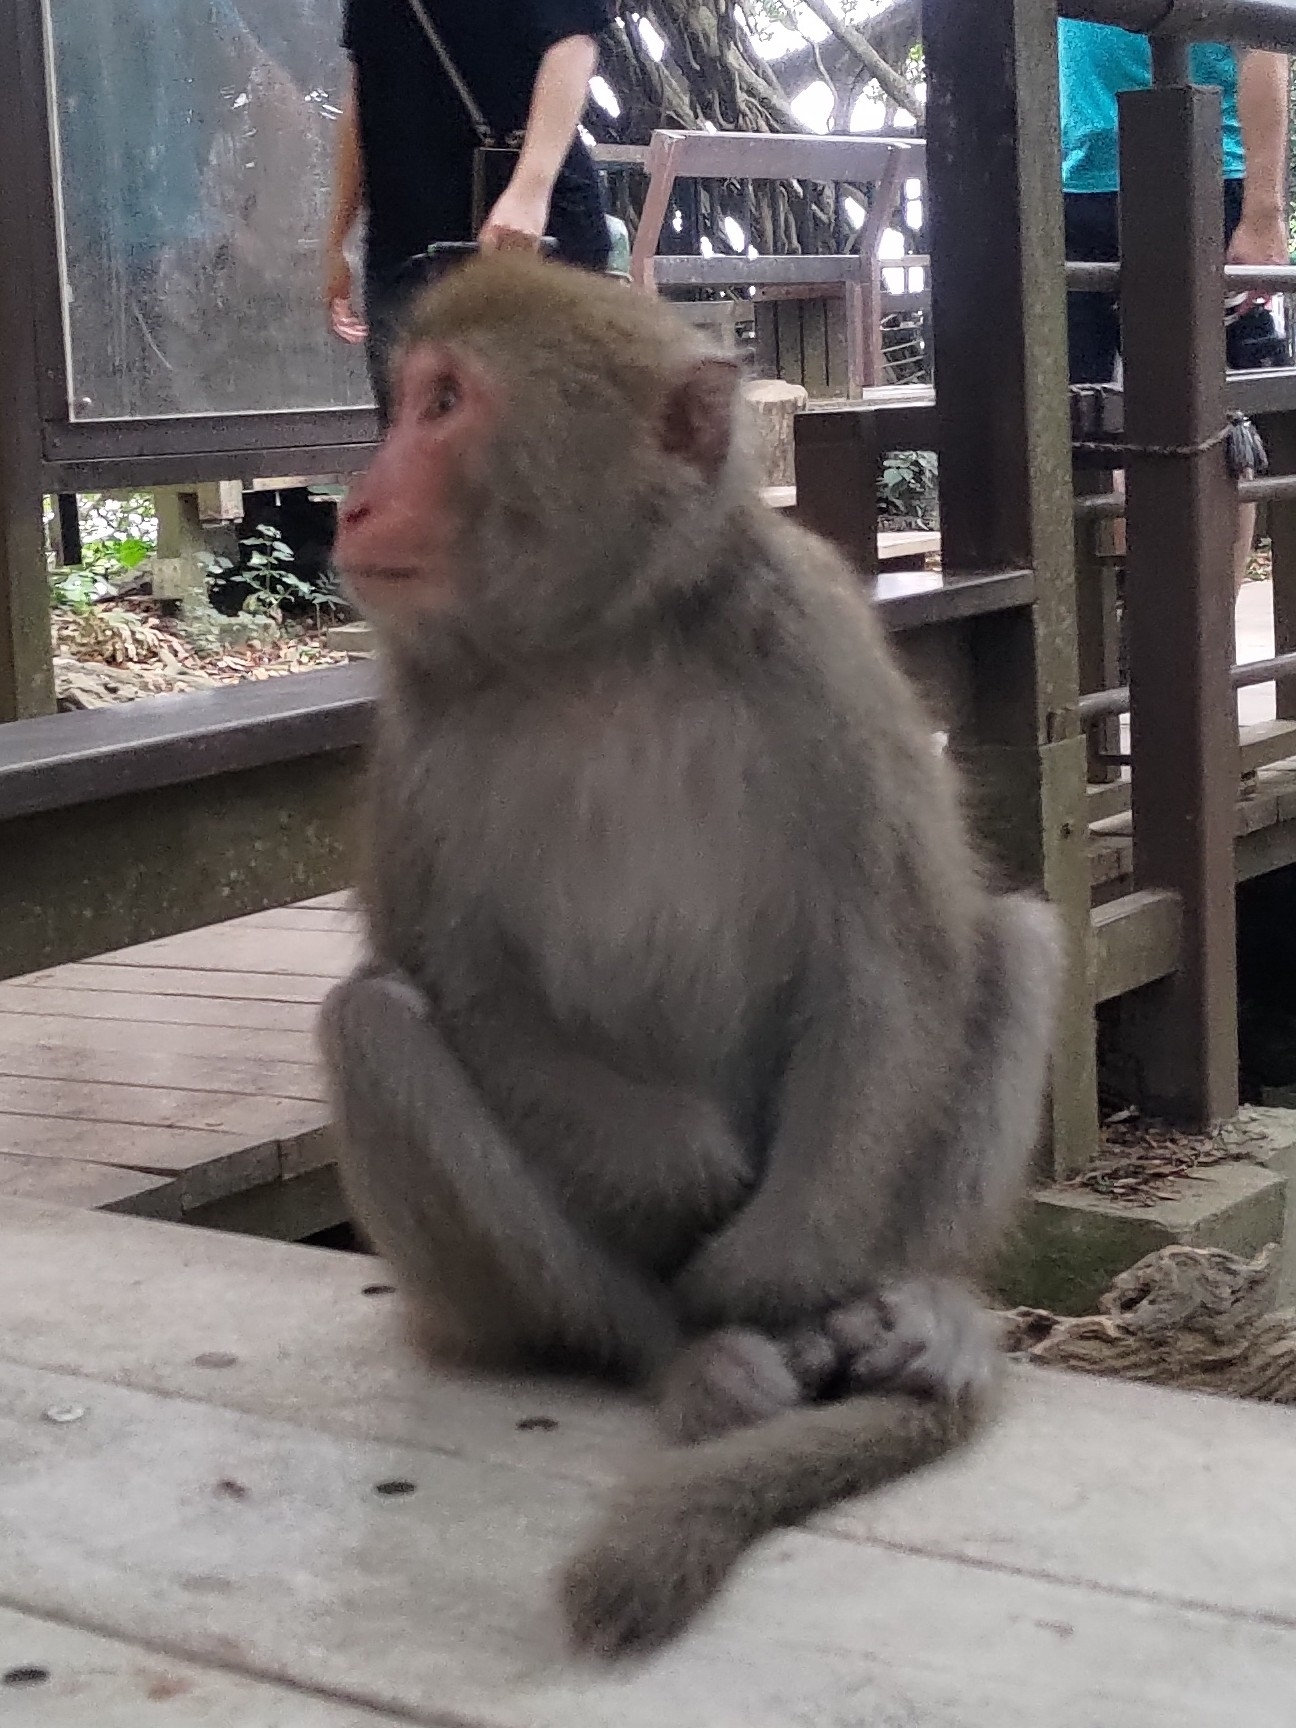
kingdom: Animalia
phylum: Chordata
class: Mammalia
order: Primates
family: Cercopithecidae
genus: Macaca
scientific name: Macaca cyclopis
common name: Formosan rock macaque
